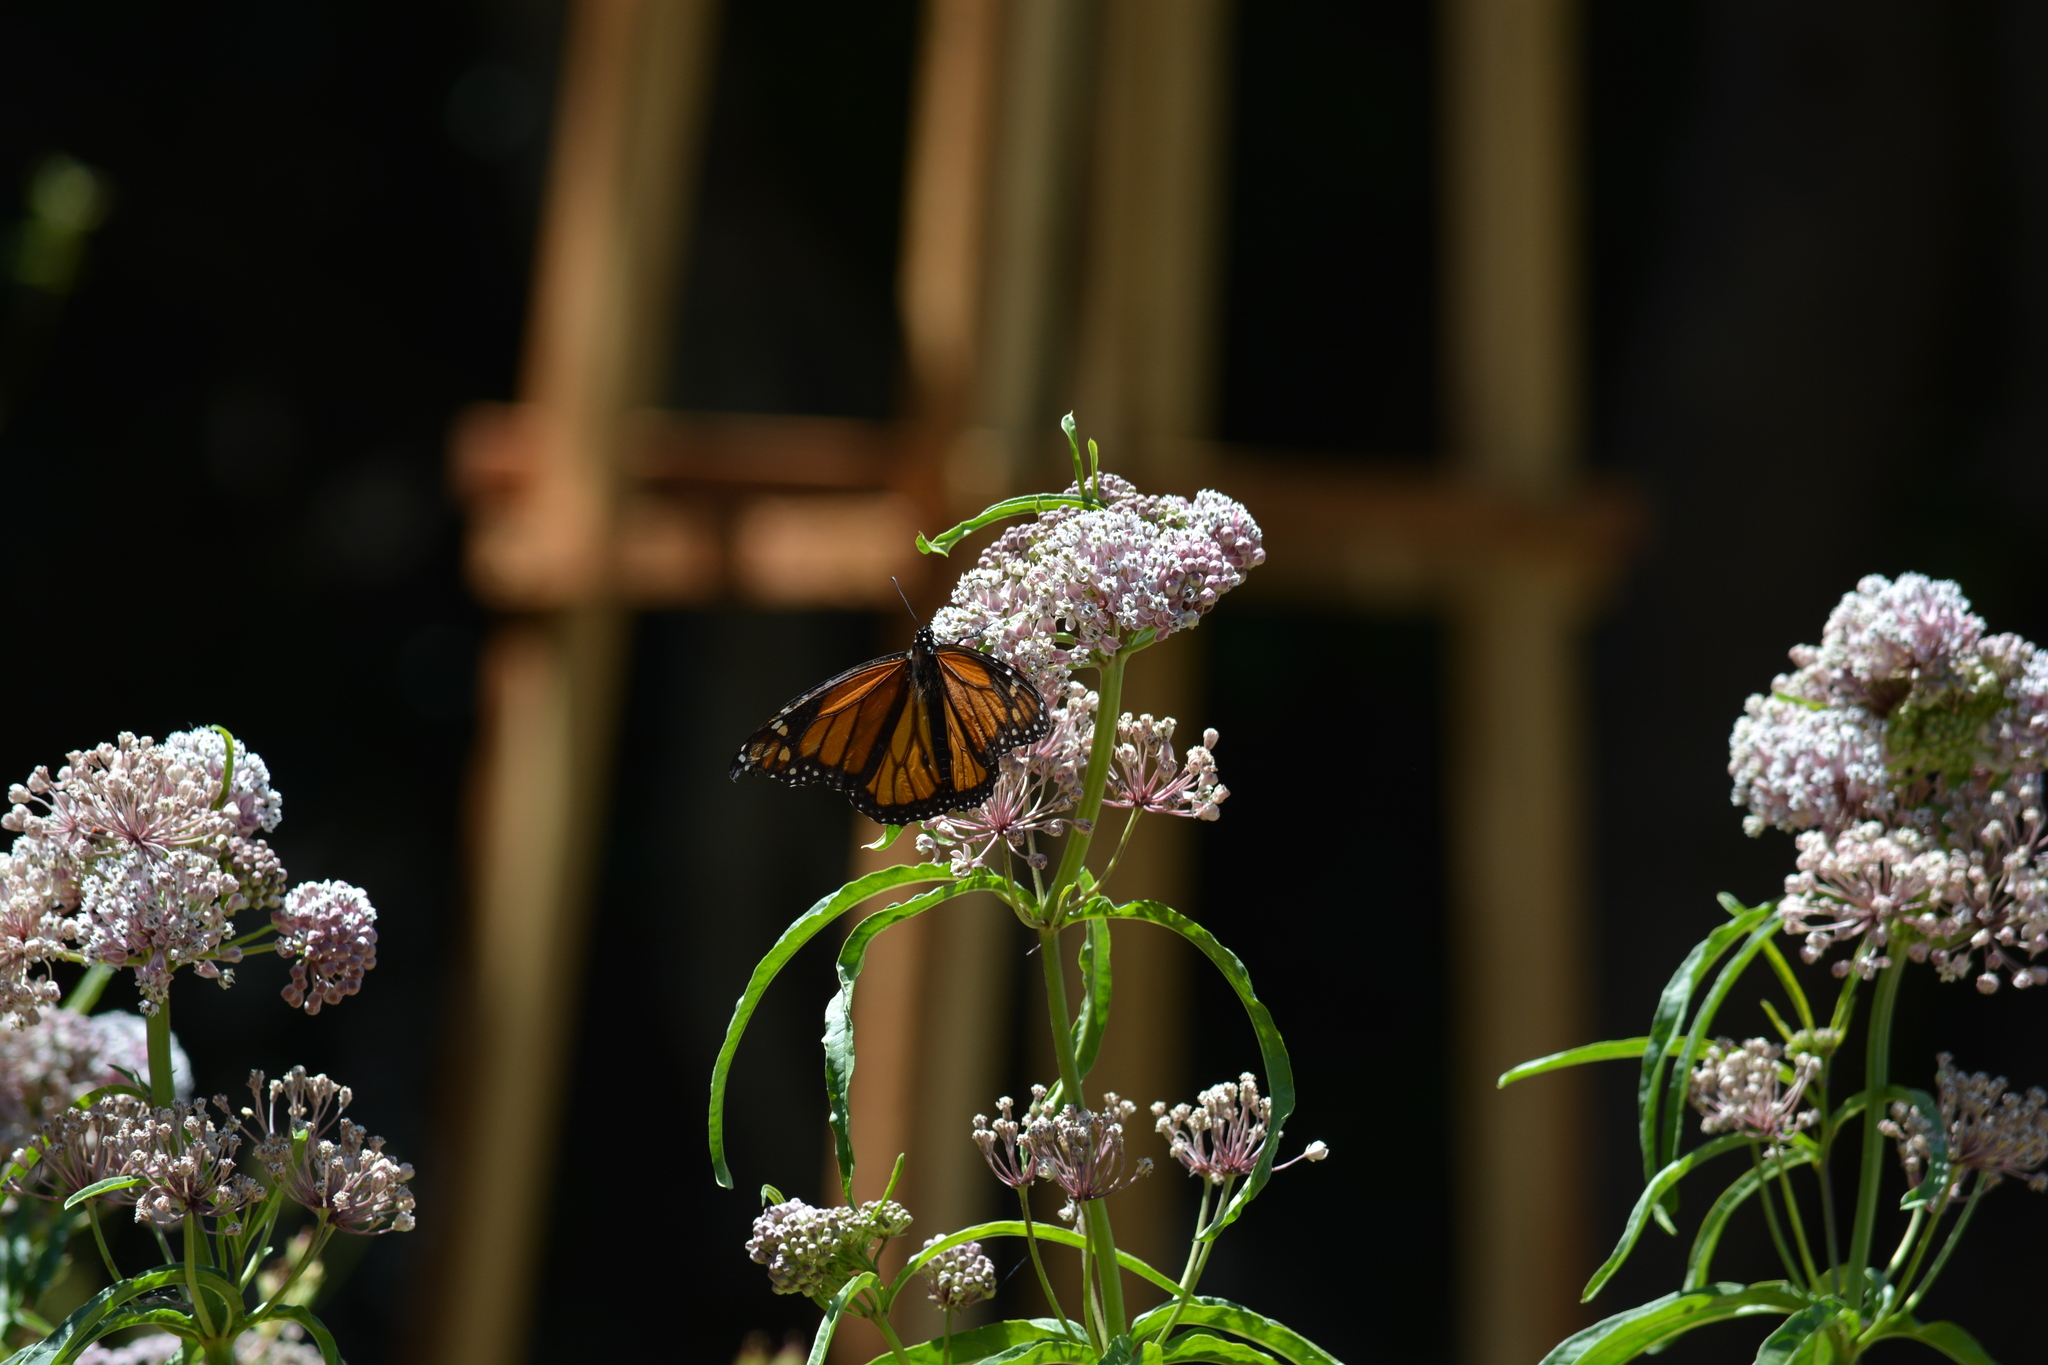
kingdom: Animalia
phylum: Arthropoda
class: Insecta
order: Lepidoptera
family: Nymphalidae
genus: Danaus
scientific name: Danaus plexippus
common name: Monarch
